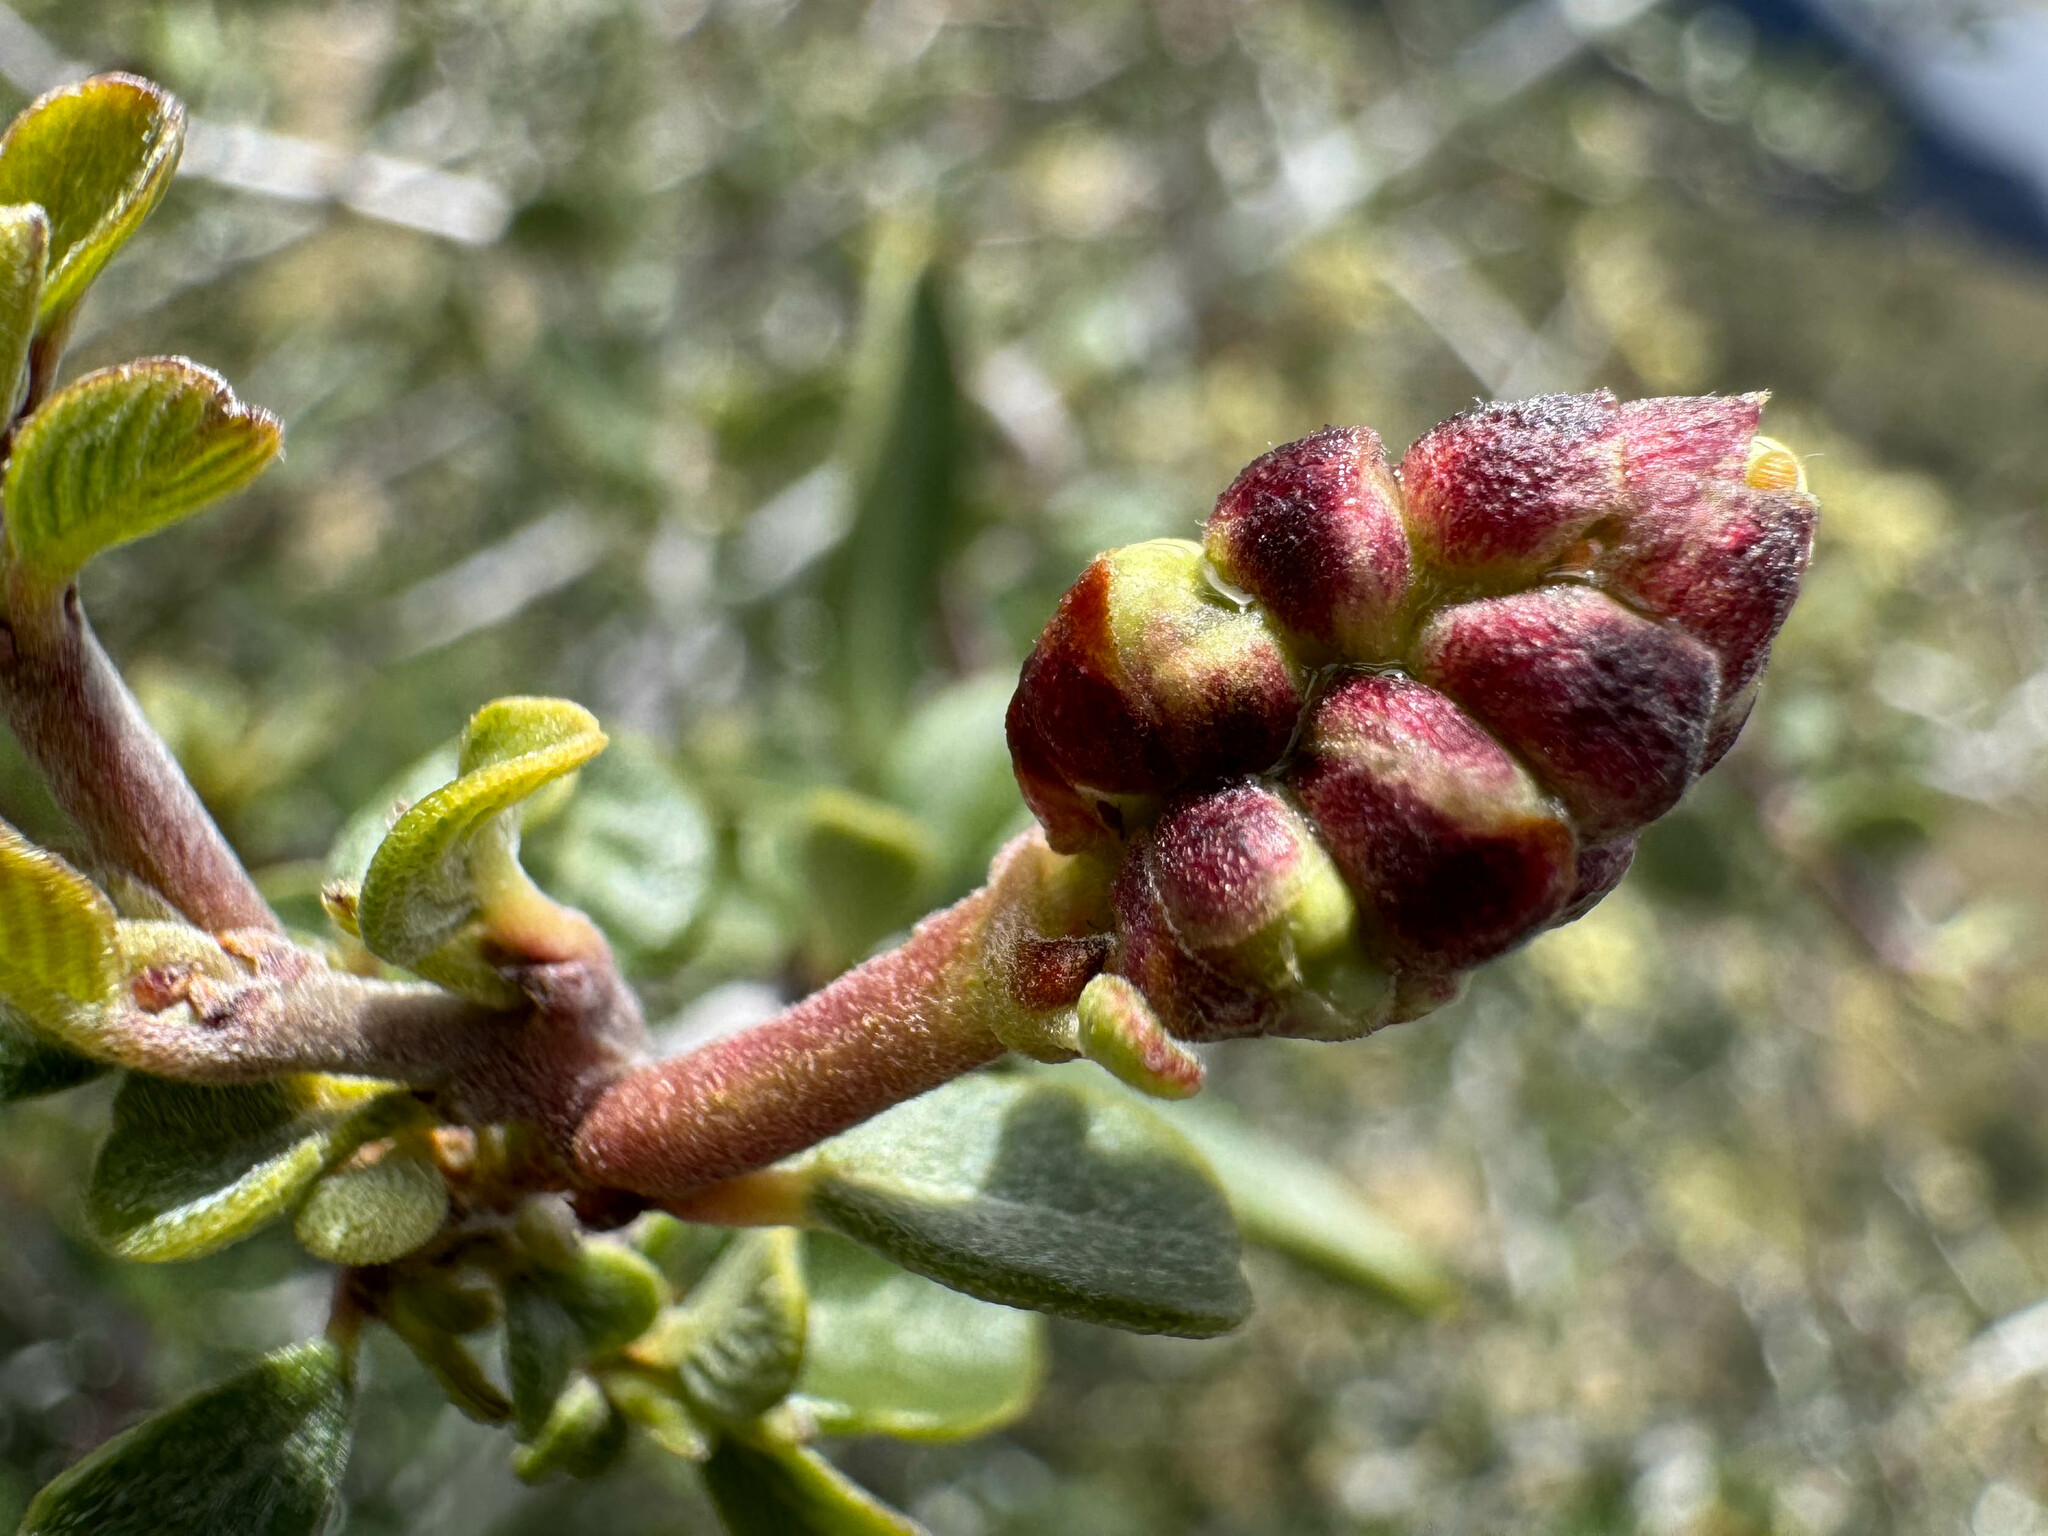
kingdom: Plantae
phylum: Tracheophyta
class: Magnoliopsida
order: Rosales
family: Rhamnaceae
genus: Ceanothus
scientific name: Ceanothus cuneatus
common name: Cuneate ceanothus
